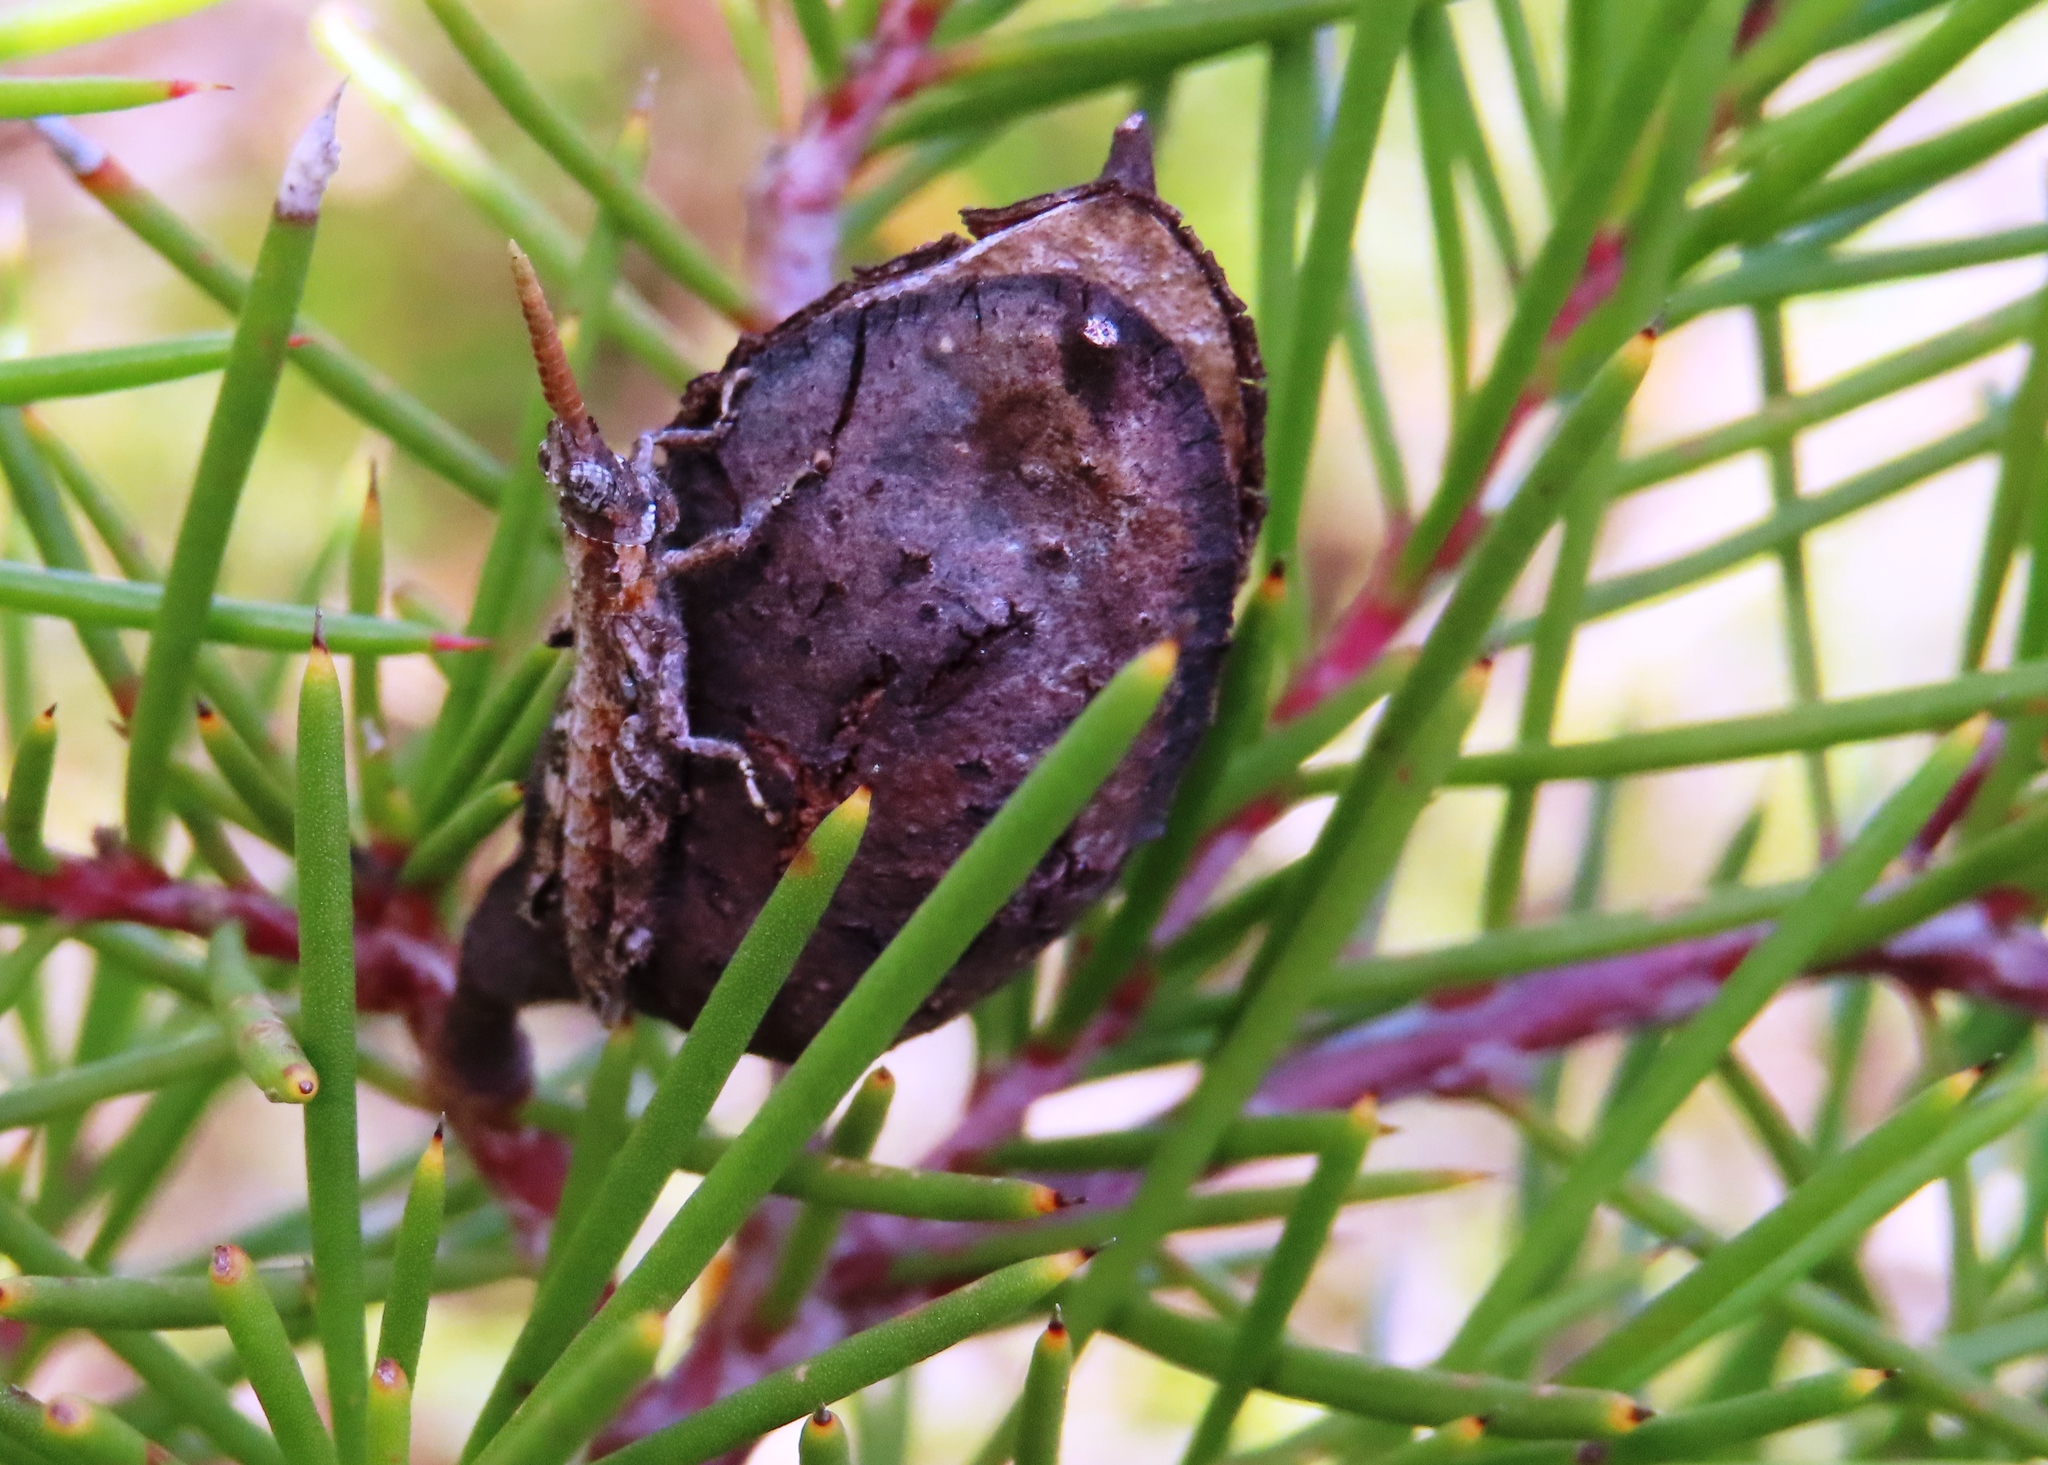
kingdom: Plantae
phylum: Tracheophyta
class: Magnoliopsida
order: Proteales
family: Proteaceae
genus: Hakea
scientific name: Hakea sericea
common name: Needle bush
